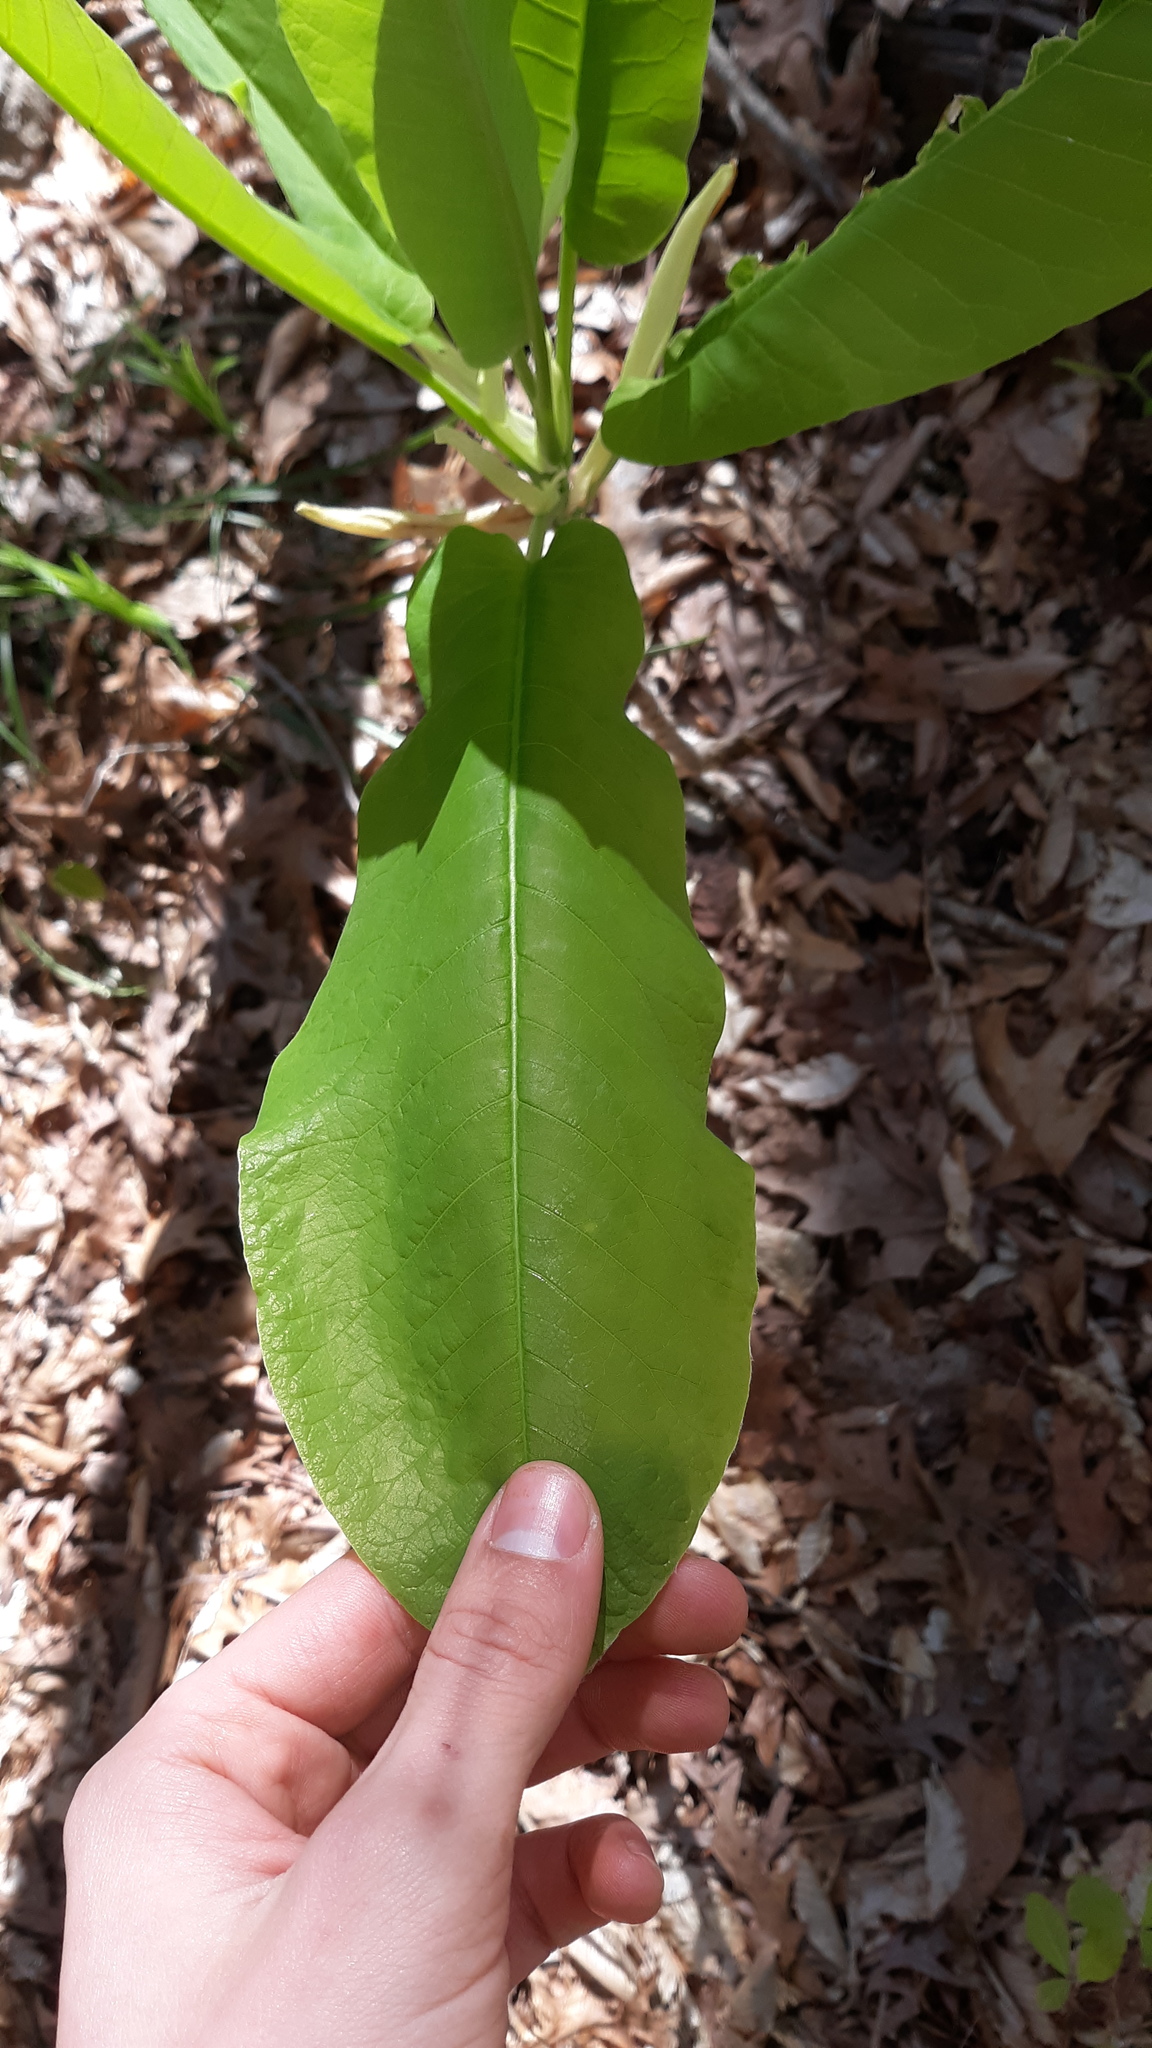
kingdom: Plantae
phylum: Tracheophyta
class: Magnoliopsida
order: Magnoliales
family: Magnoliaceae
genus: Magnolia
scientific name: Magnolia macrophylla
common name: Big-leaf magnolia
